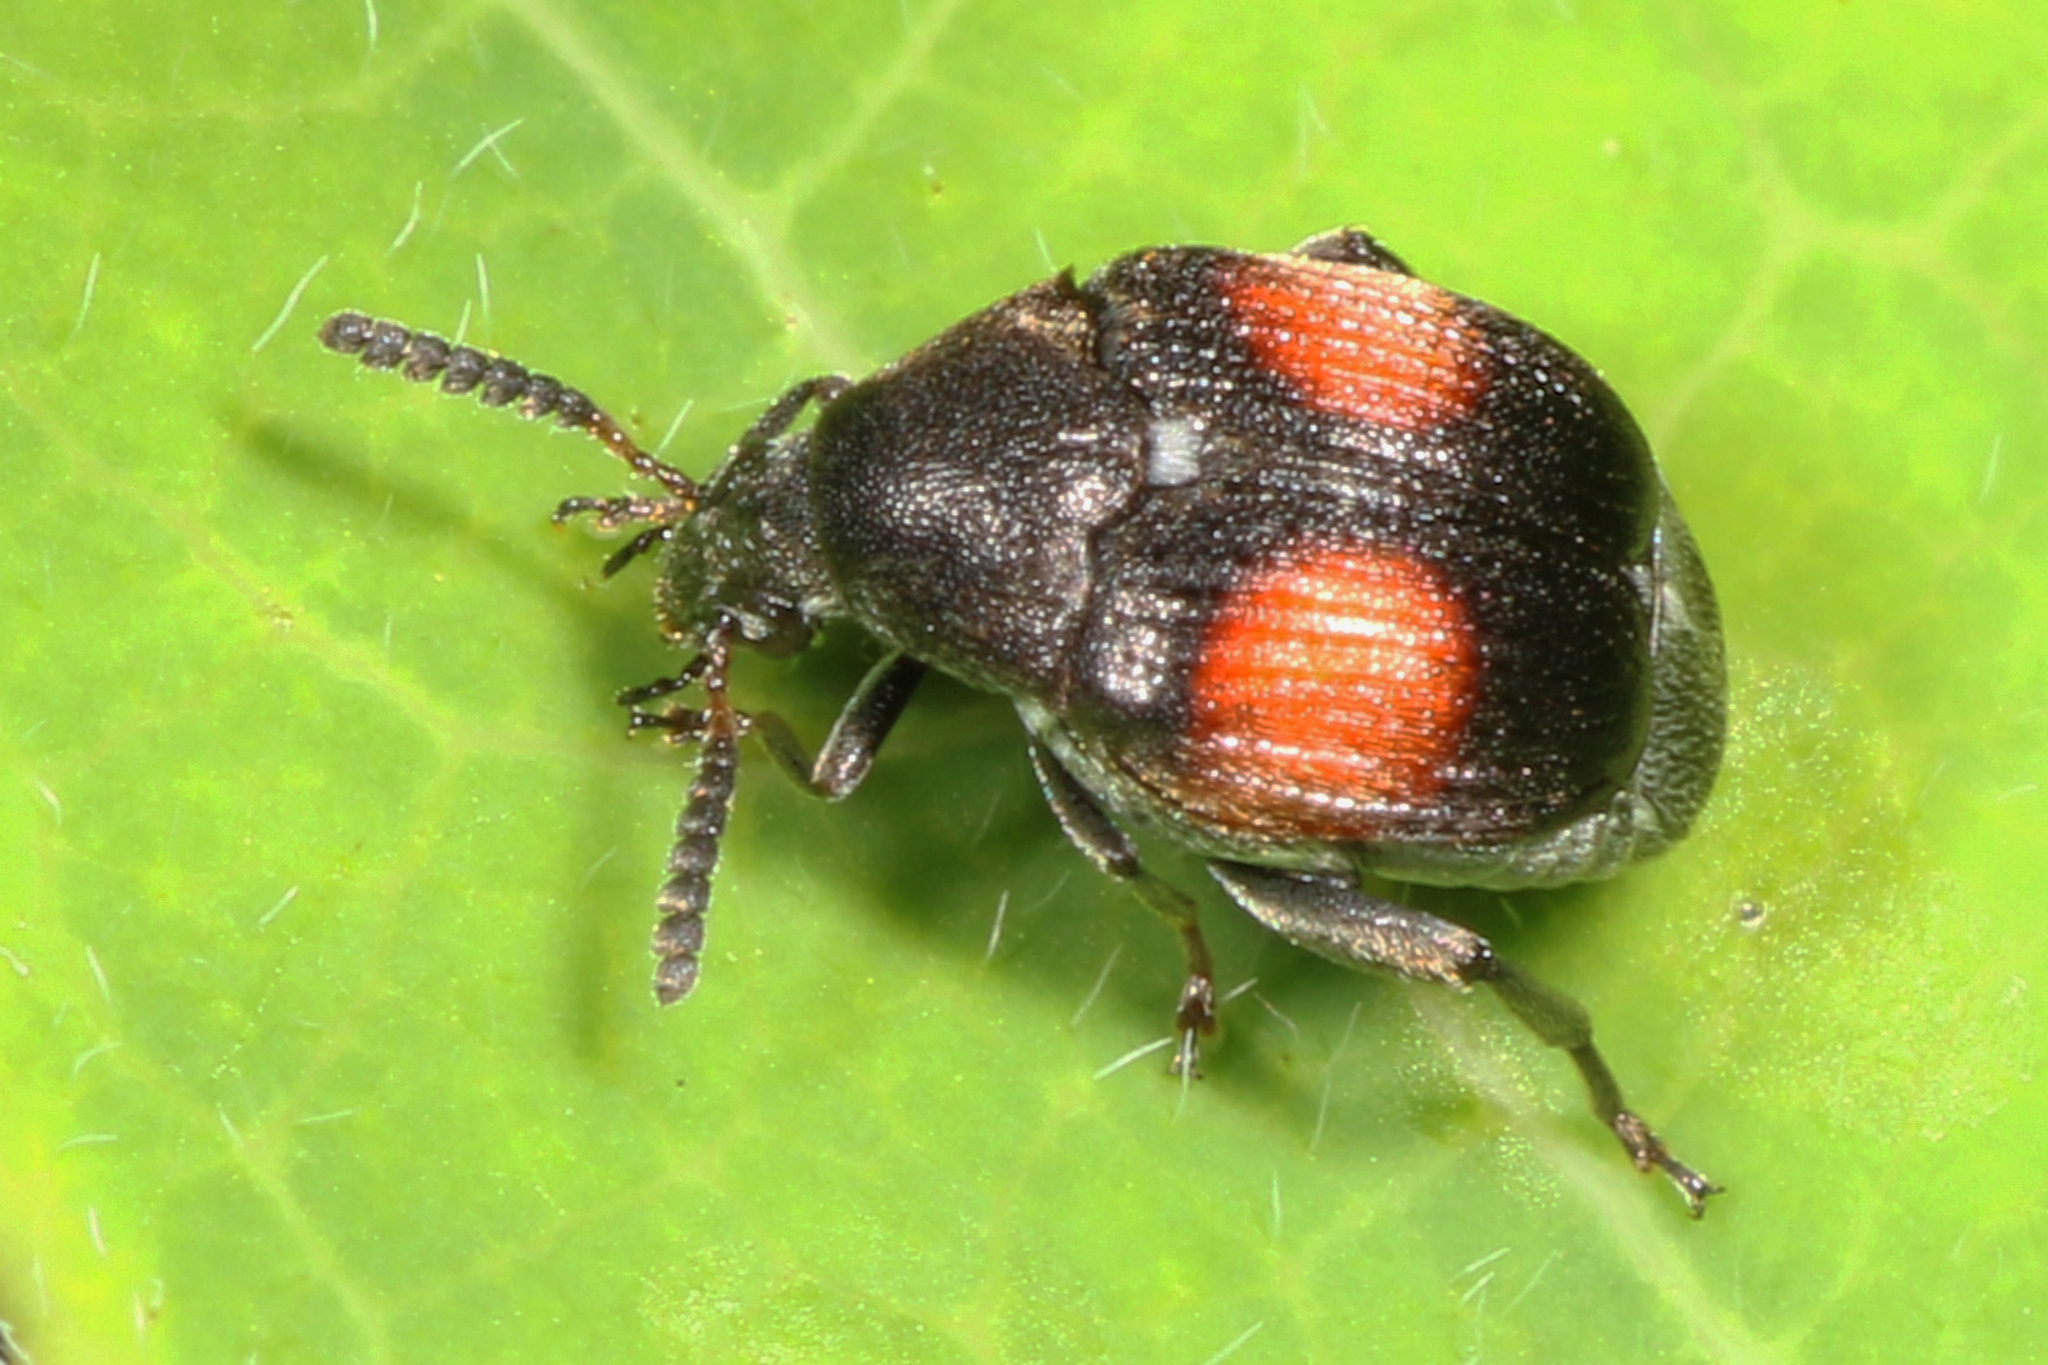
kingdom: Animalia
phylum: Arthropoda
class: Insecta
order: Coleoptera
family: Chrysomelidae
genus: Sennius
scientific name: Sennius abbreviatus
